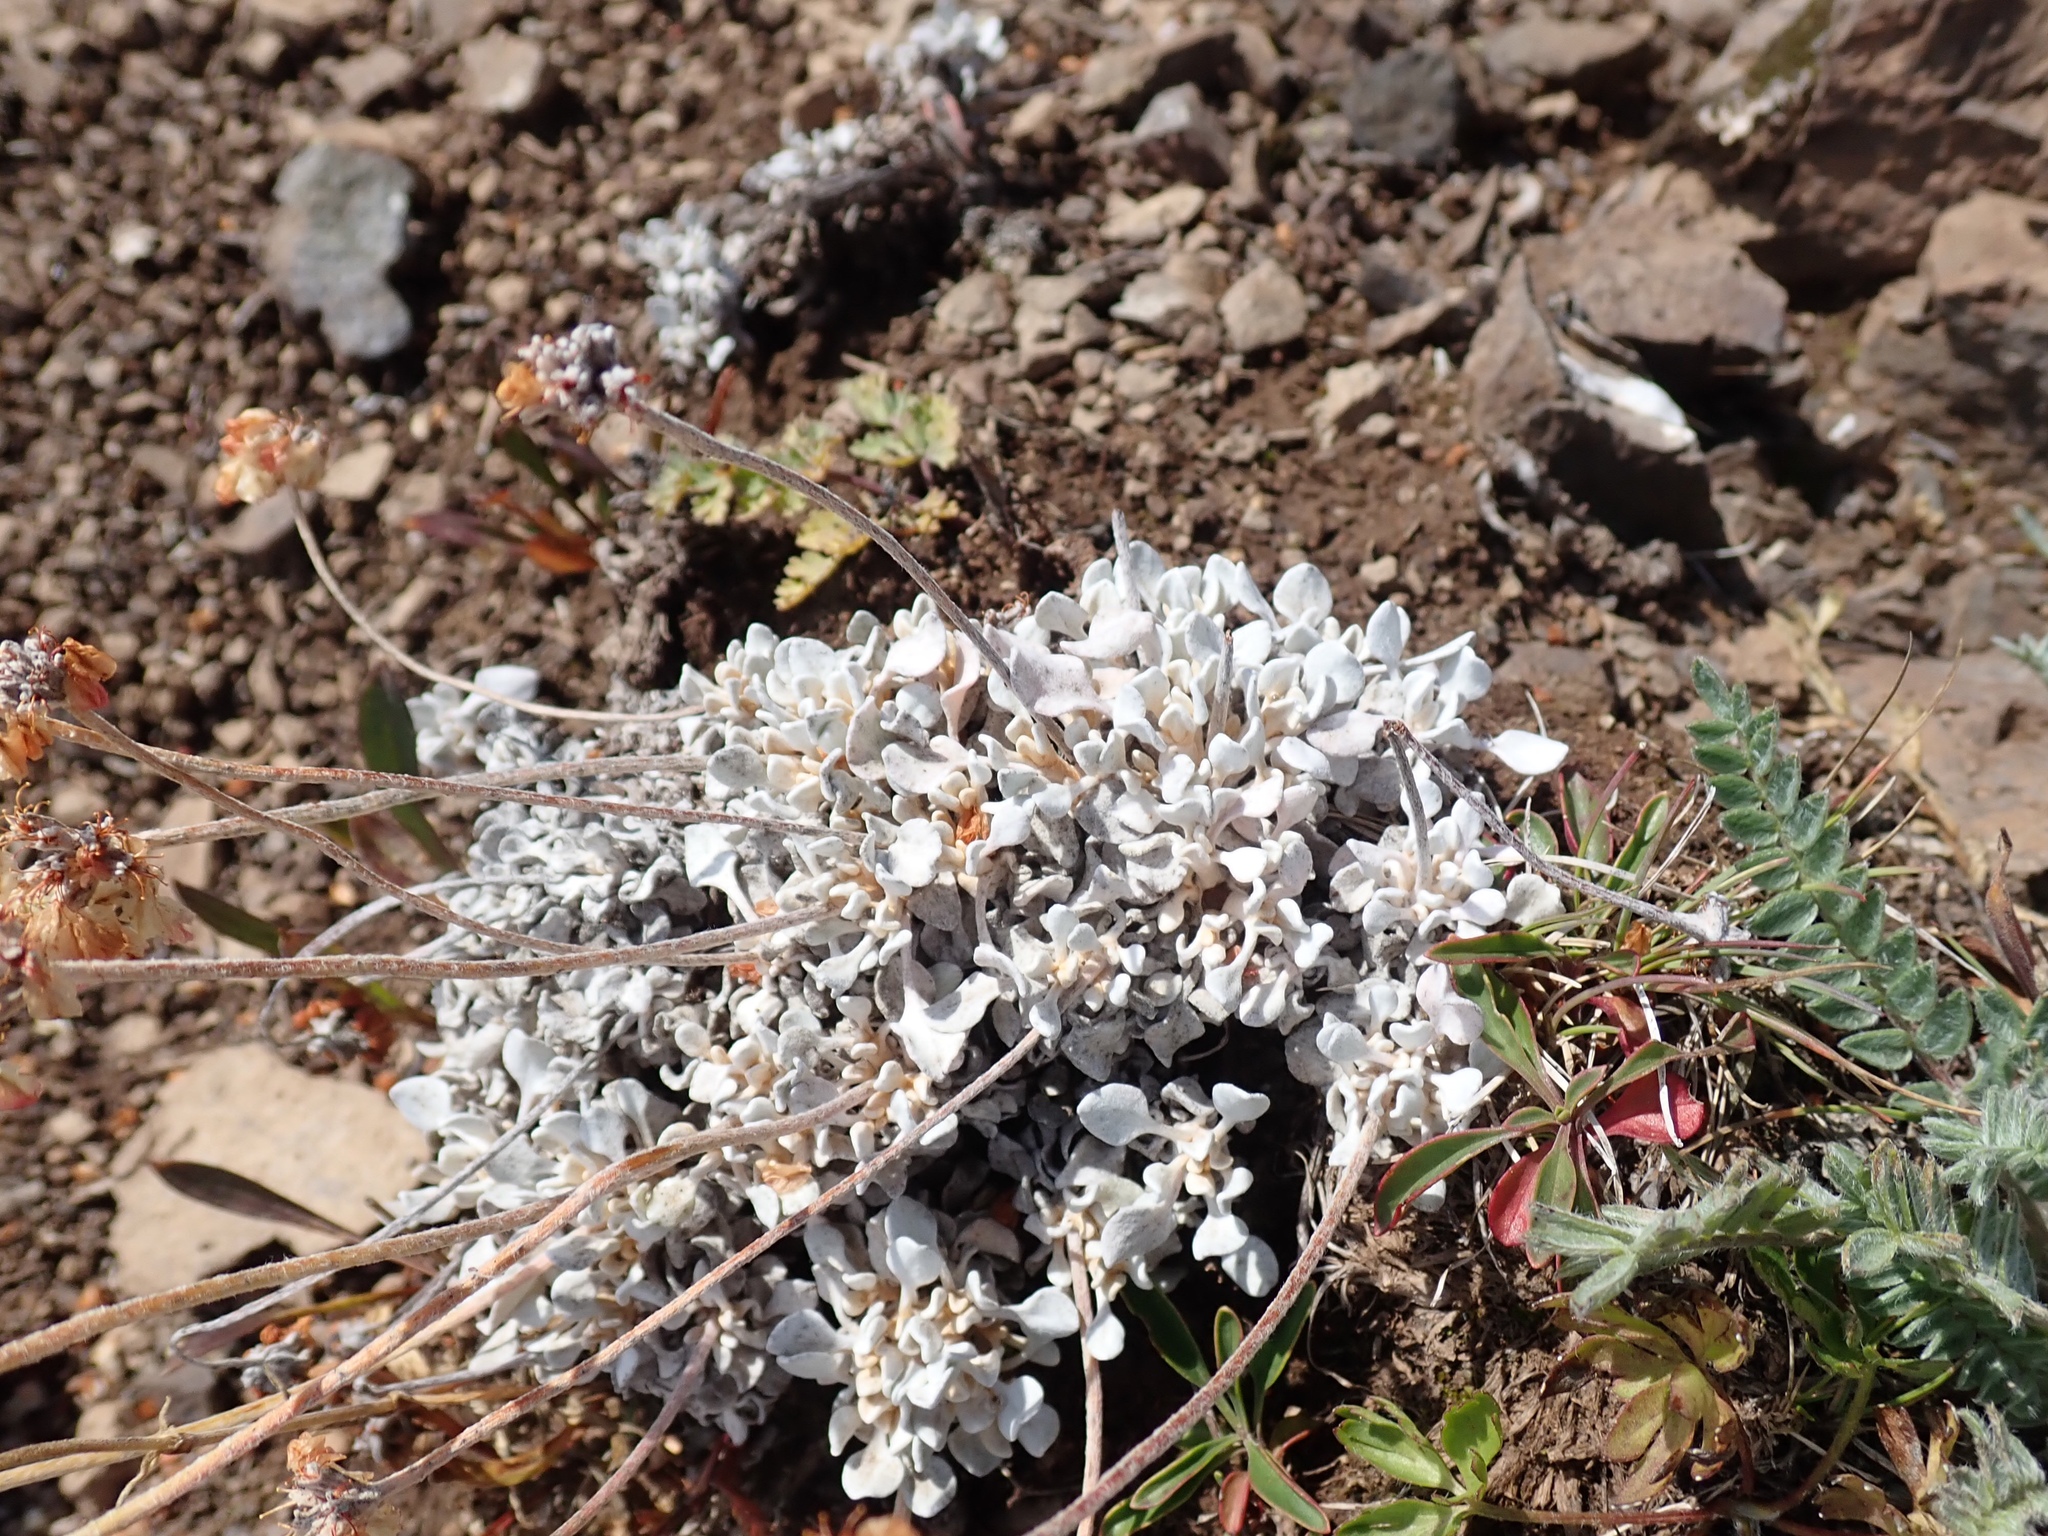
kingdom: Plantae
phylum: Tracheophyta
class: Magnoliopsida
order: Caryophyllales
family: Polygonaceae
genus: Eriogonum
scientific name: Eriogonum ovalifolium
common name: Cushion buckwheat
